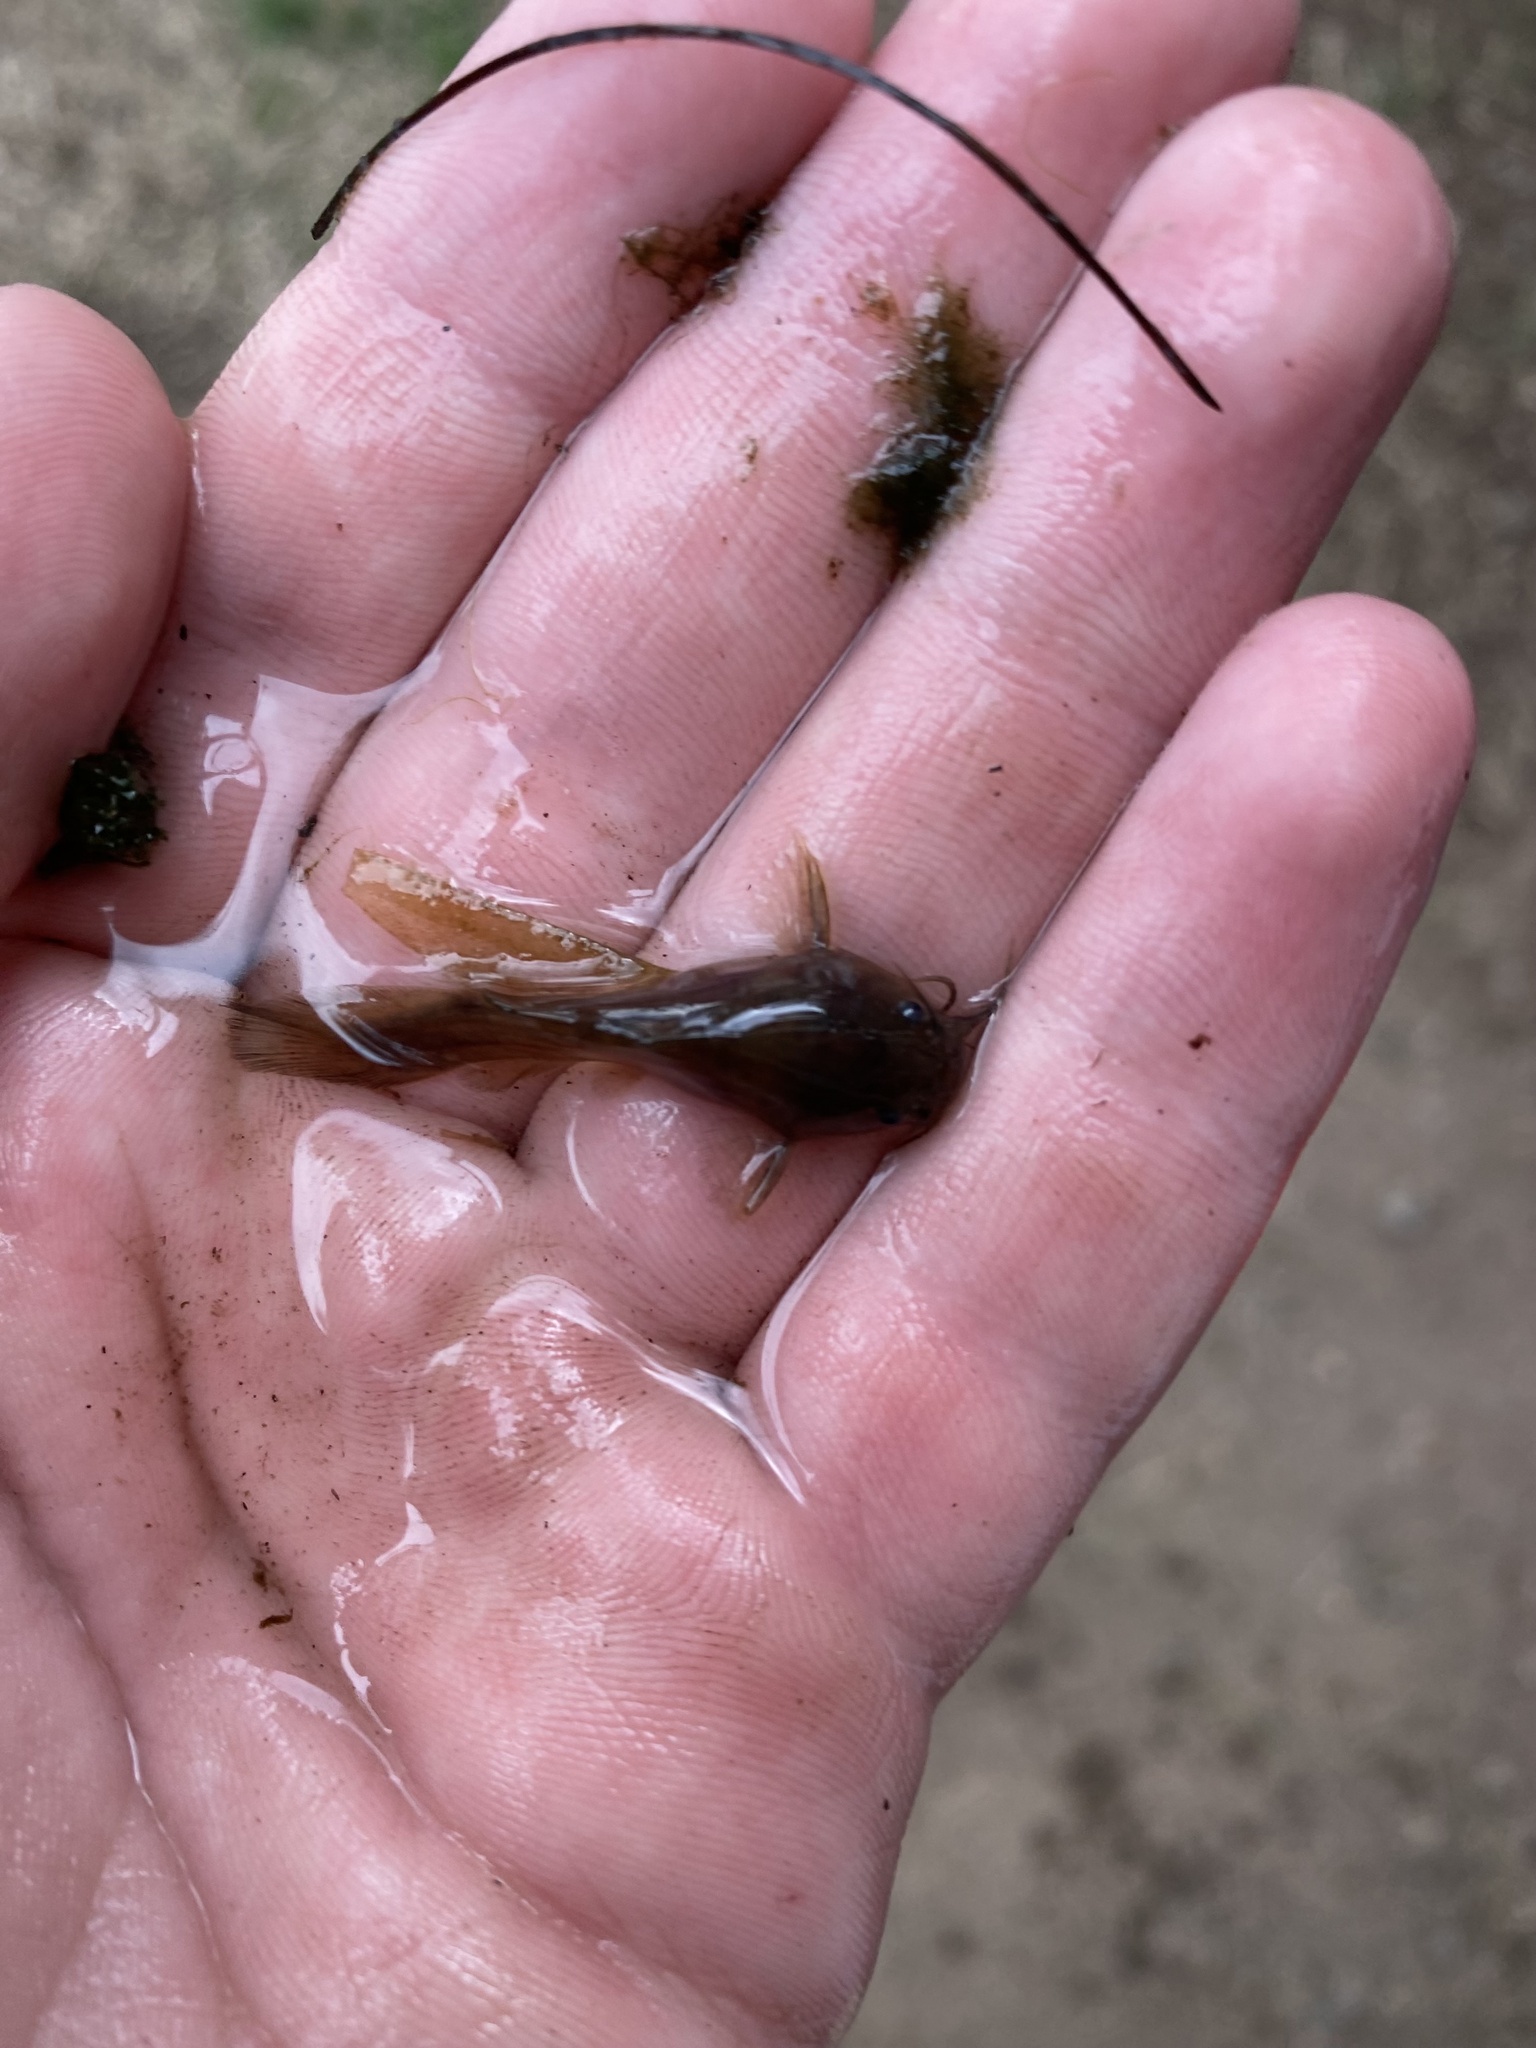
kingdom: Animalia
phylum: Chordata
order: Siluriformes
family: Ictaluridae
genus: Noturus
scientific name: Noturus gyrinus
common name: Tadpole madtom
